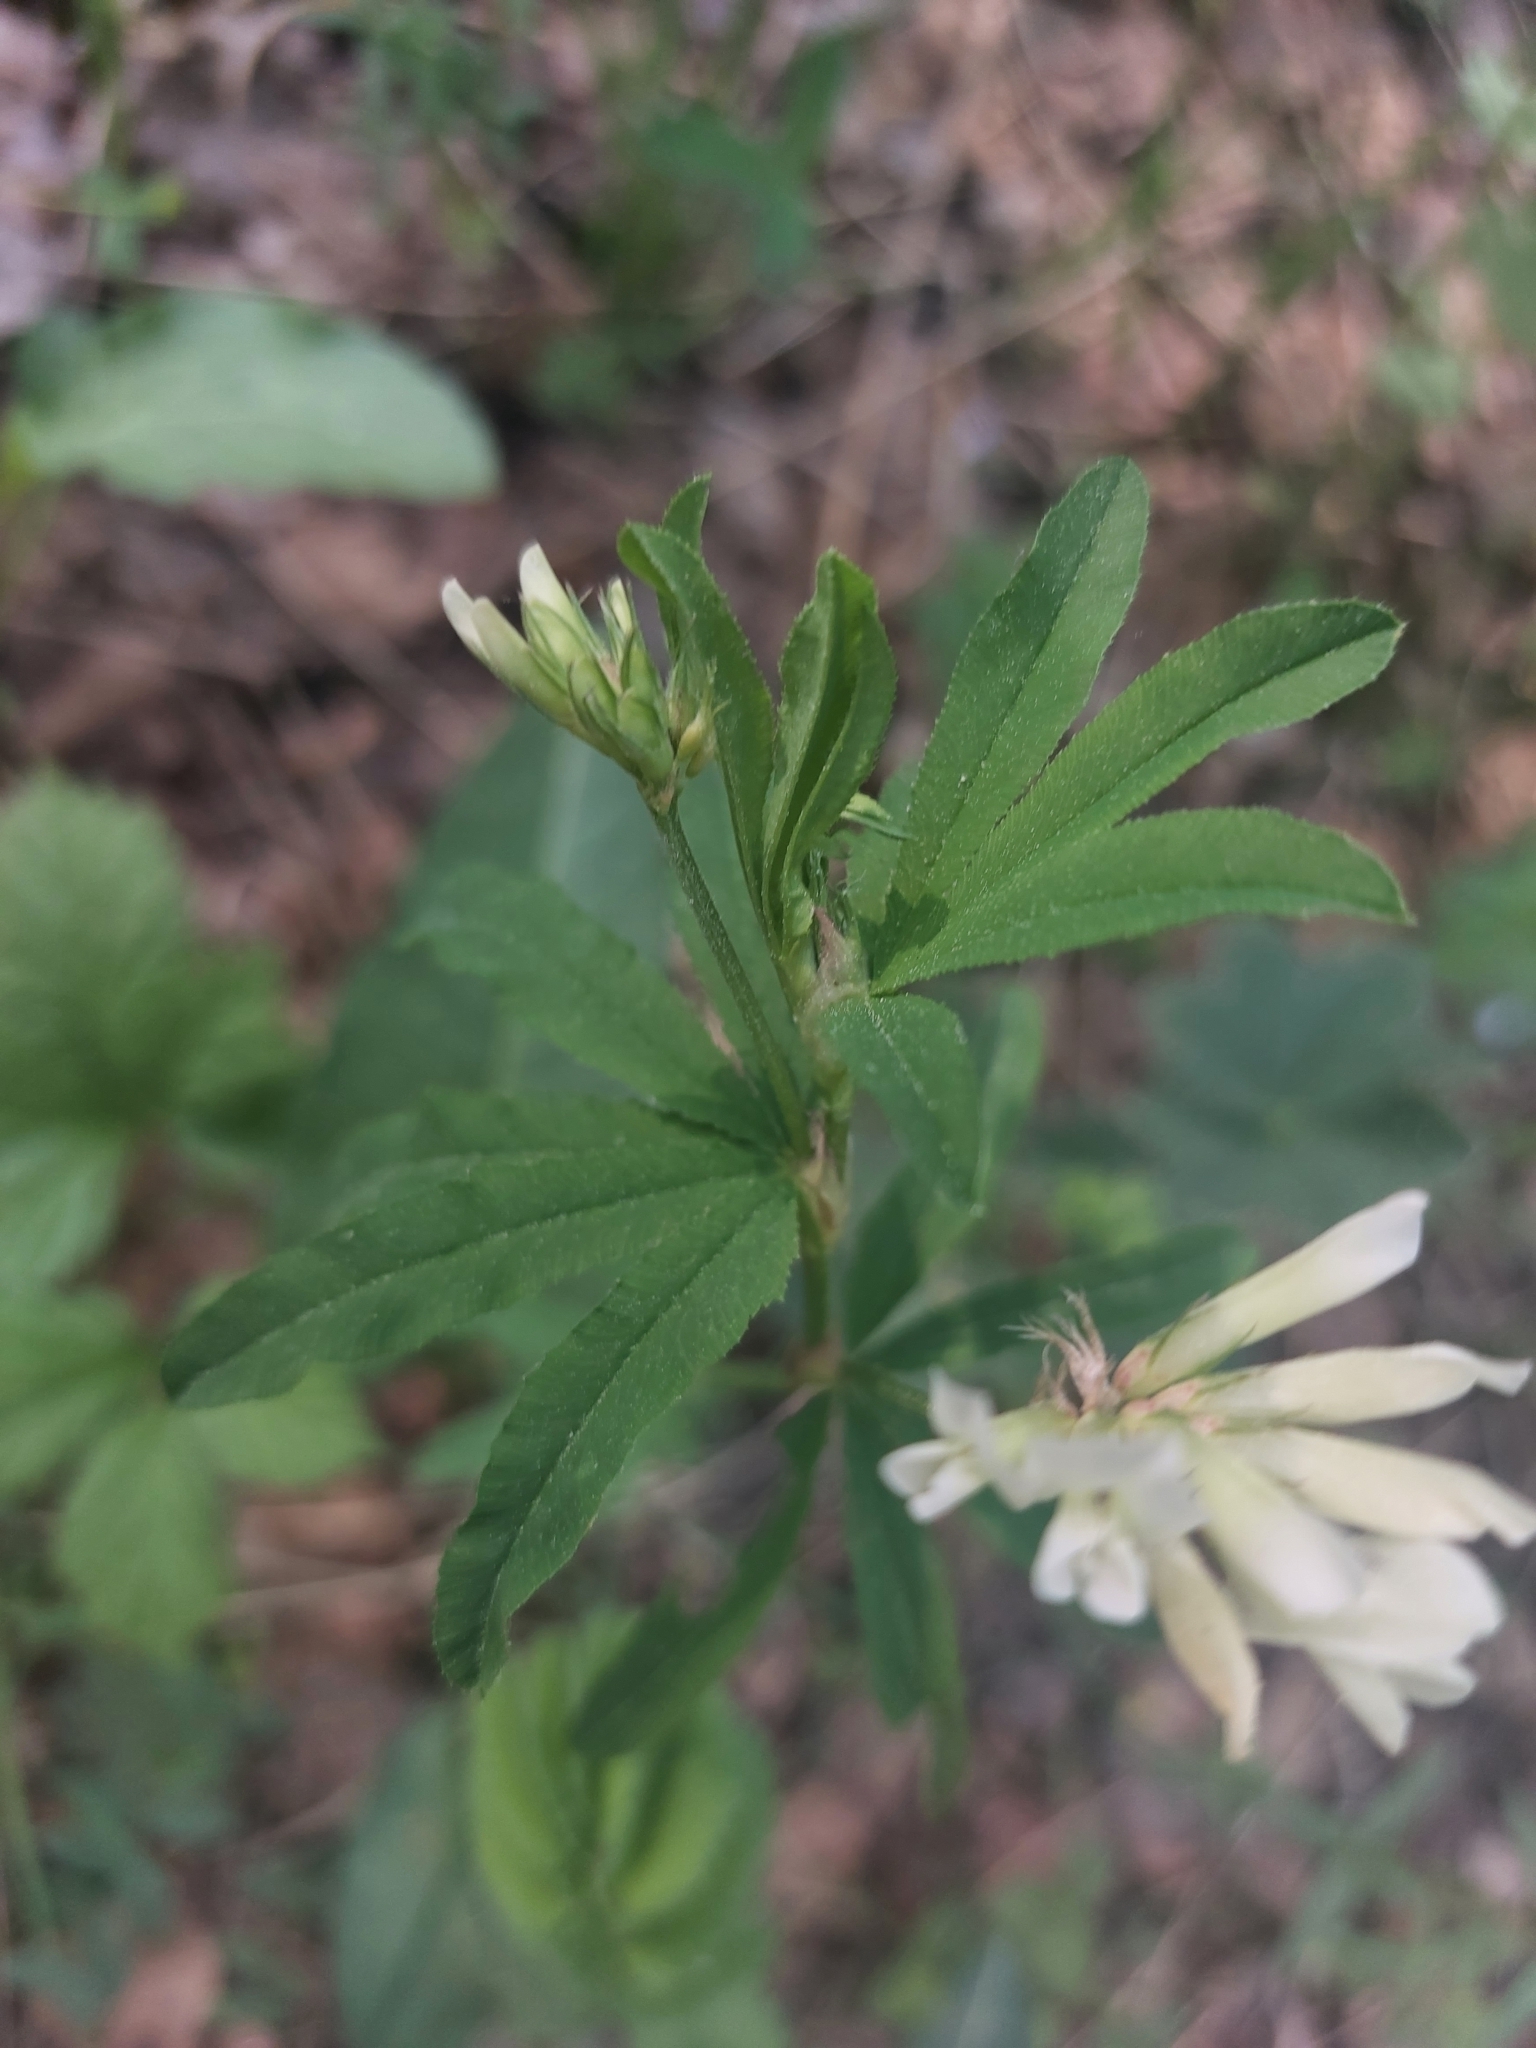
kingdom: Plantae
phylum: Tracheophyta
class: Magnoliopsida
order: Fabales
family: Fabaceae
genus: Trifolium
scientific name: Trifolium lupinaster
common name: Lupine clover
